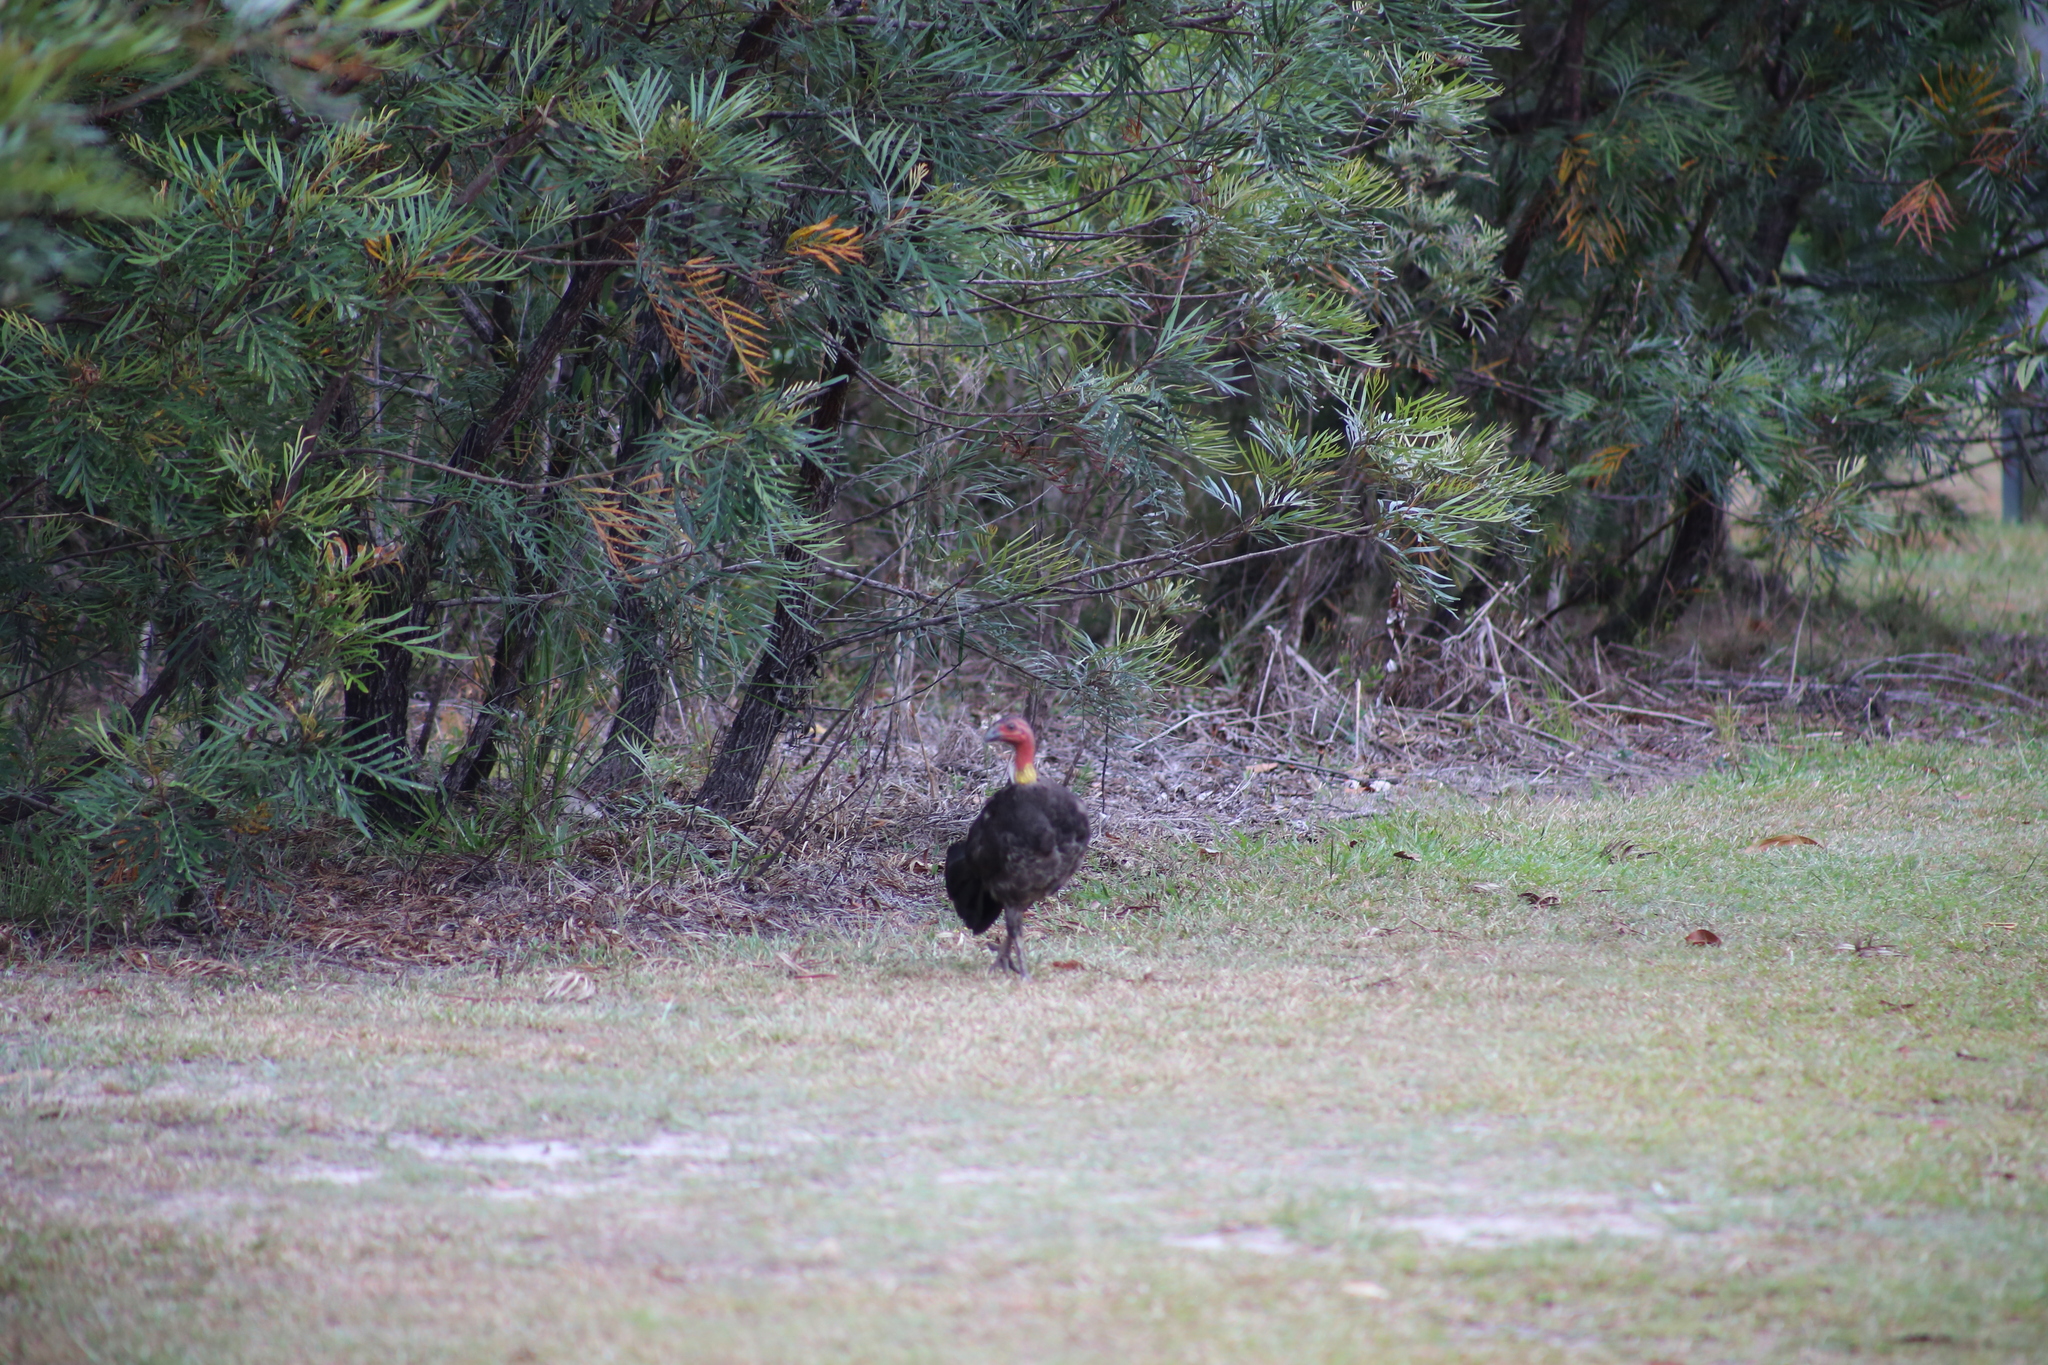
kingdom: Animalia
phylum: Chordata
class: Aves
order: Galliformes
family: Megapodiidae
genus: Alectura
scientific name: Alectura lathami
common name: Australian brushturkey
